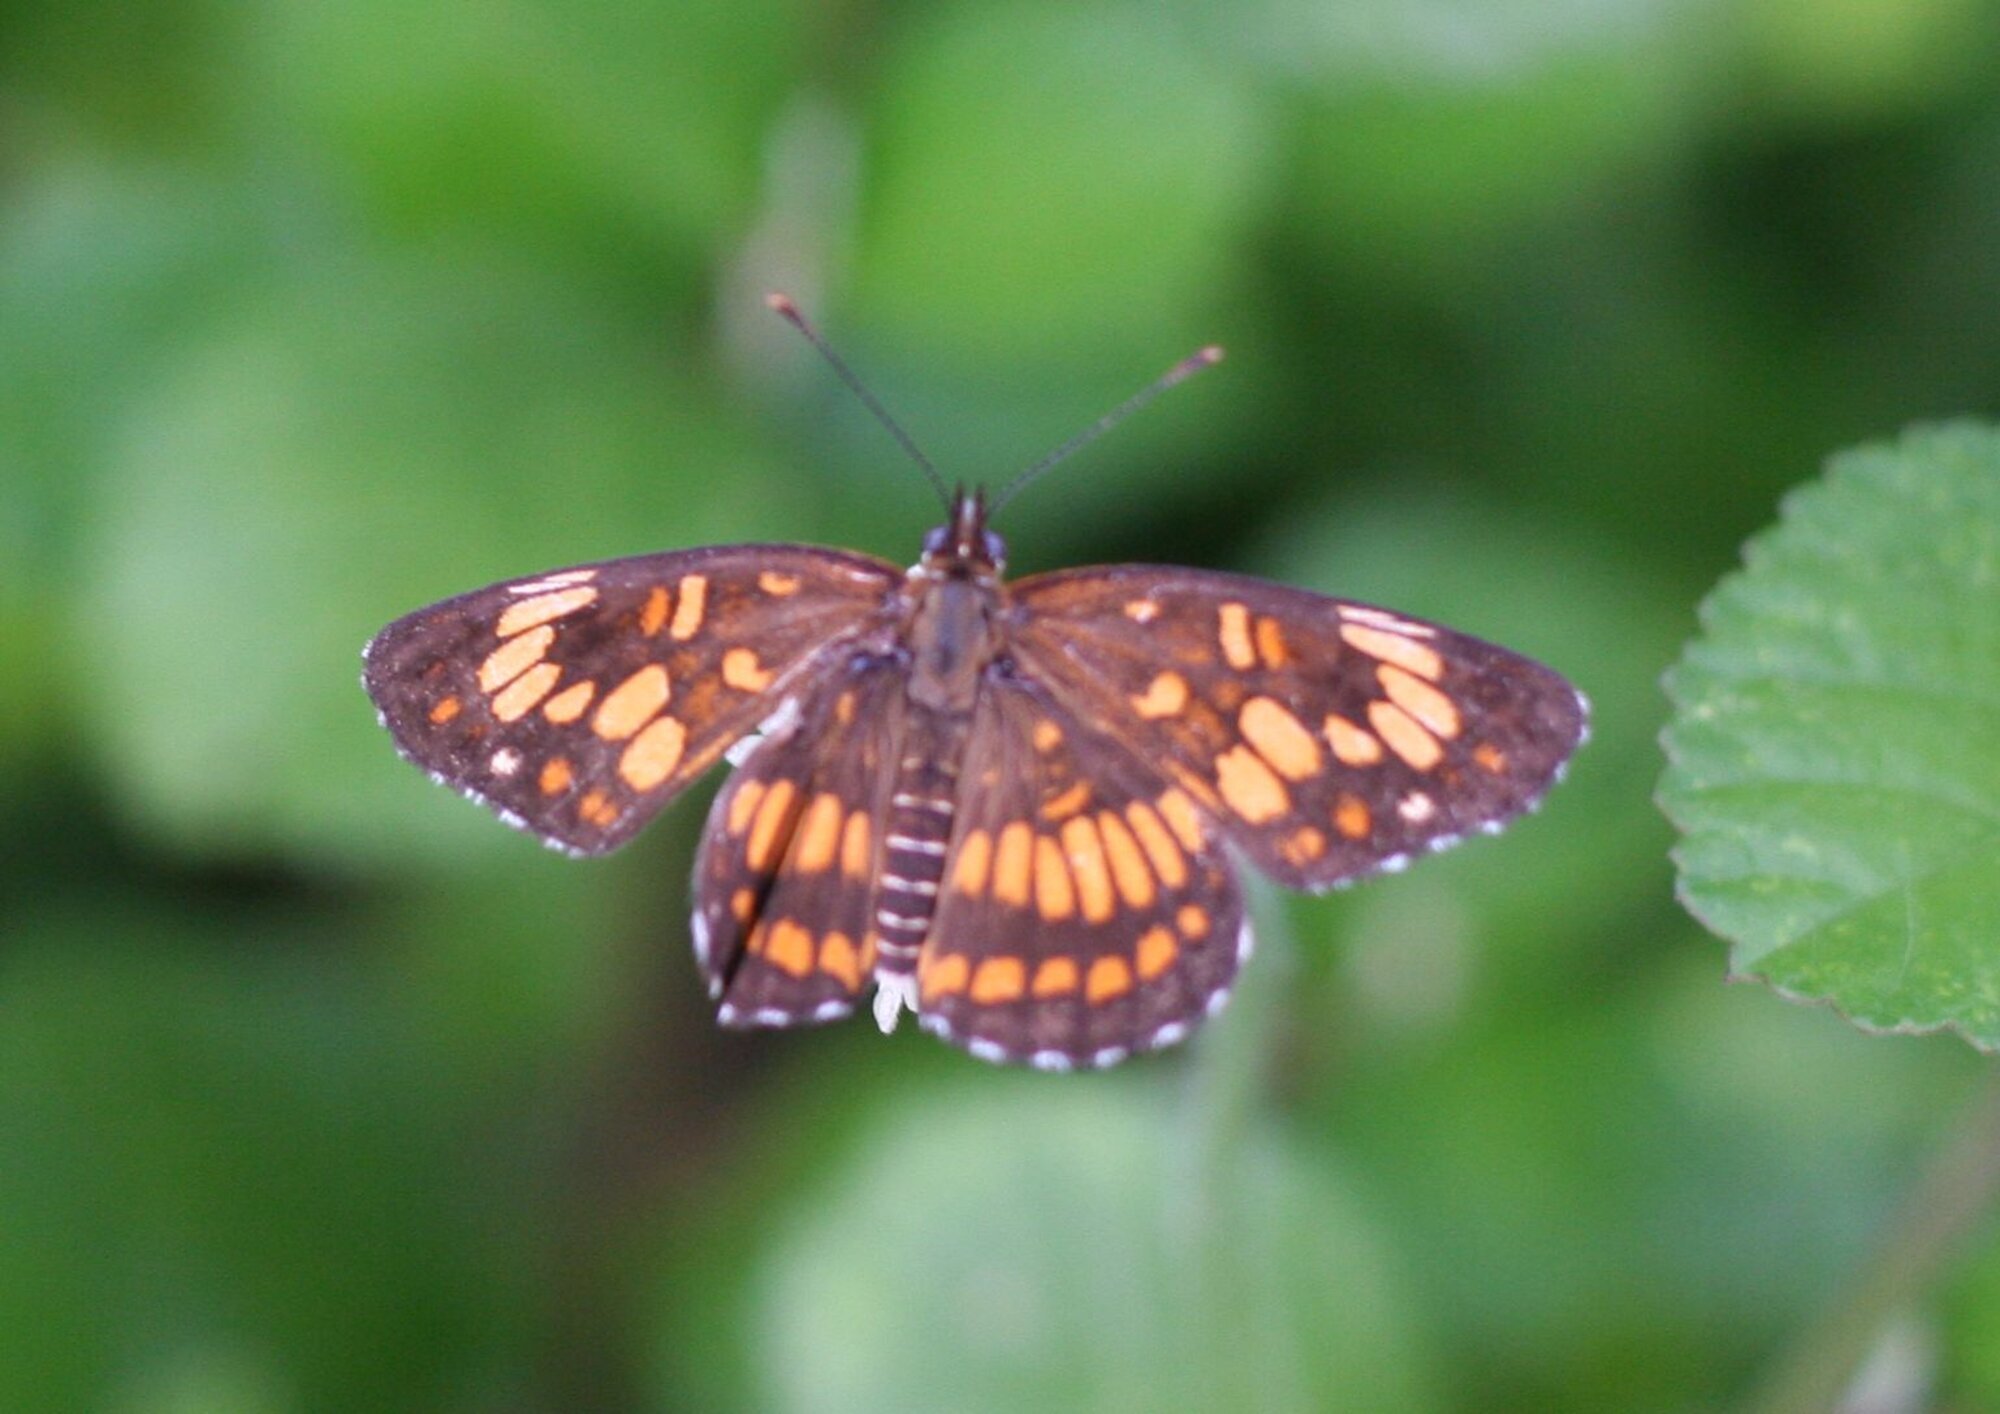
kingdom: Animalia
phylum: Arthropoda
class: Insecta
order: Lepidoptera
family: Nymphalidae
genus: Thessalia
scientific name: Thessalia theona
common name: Nymphalid moth
